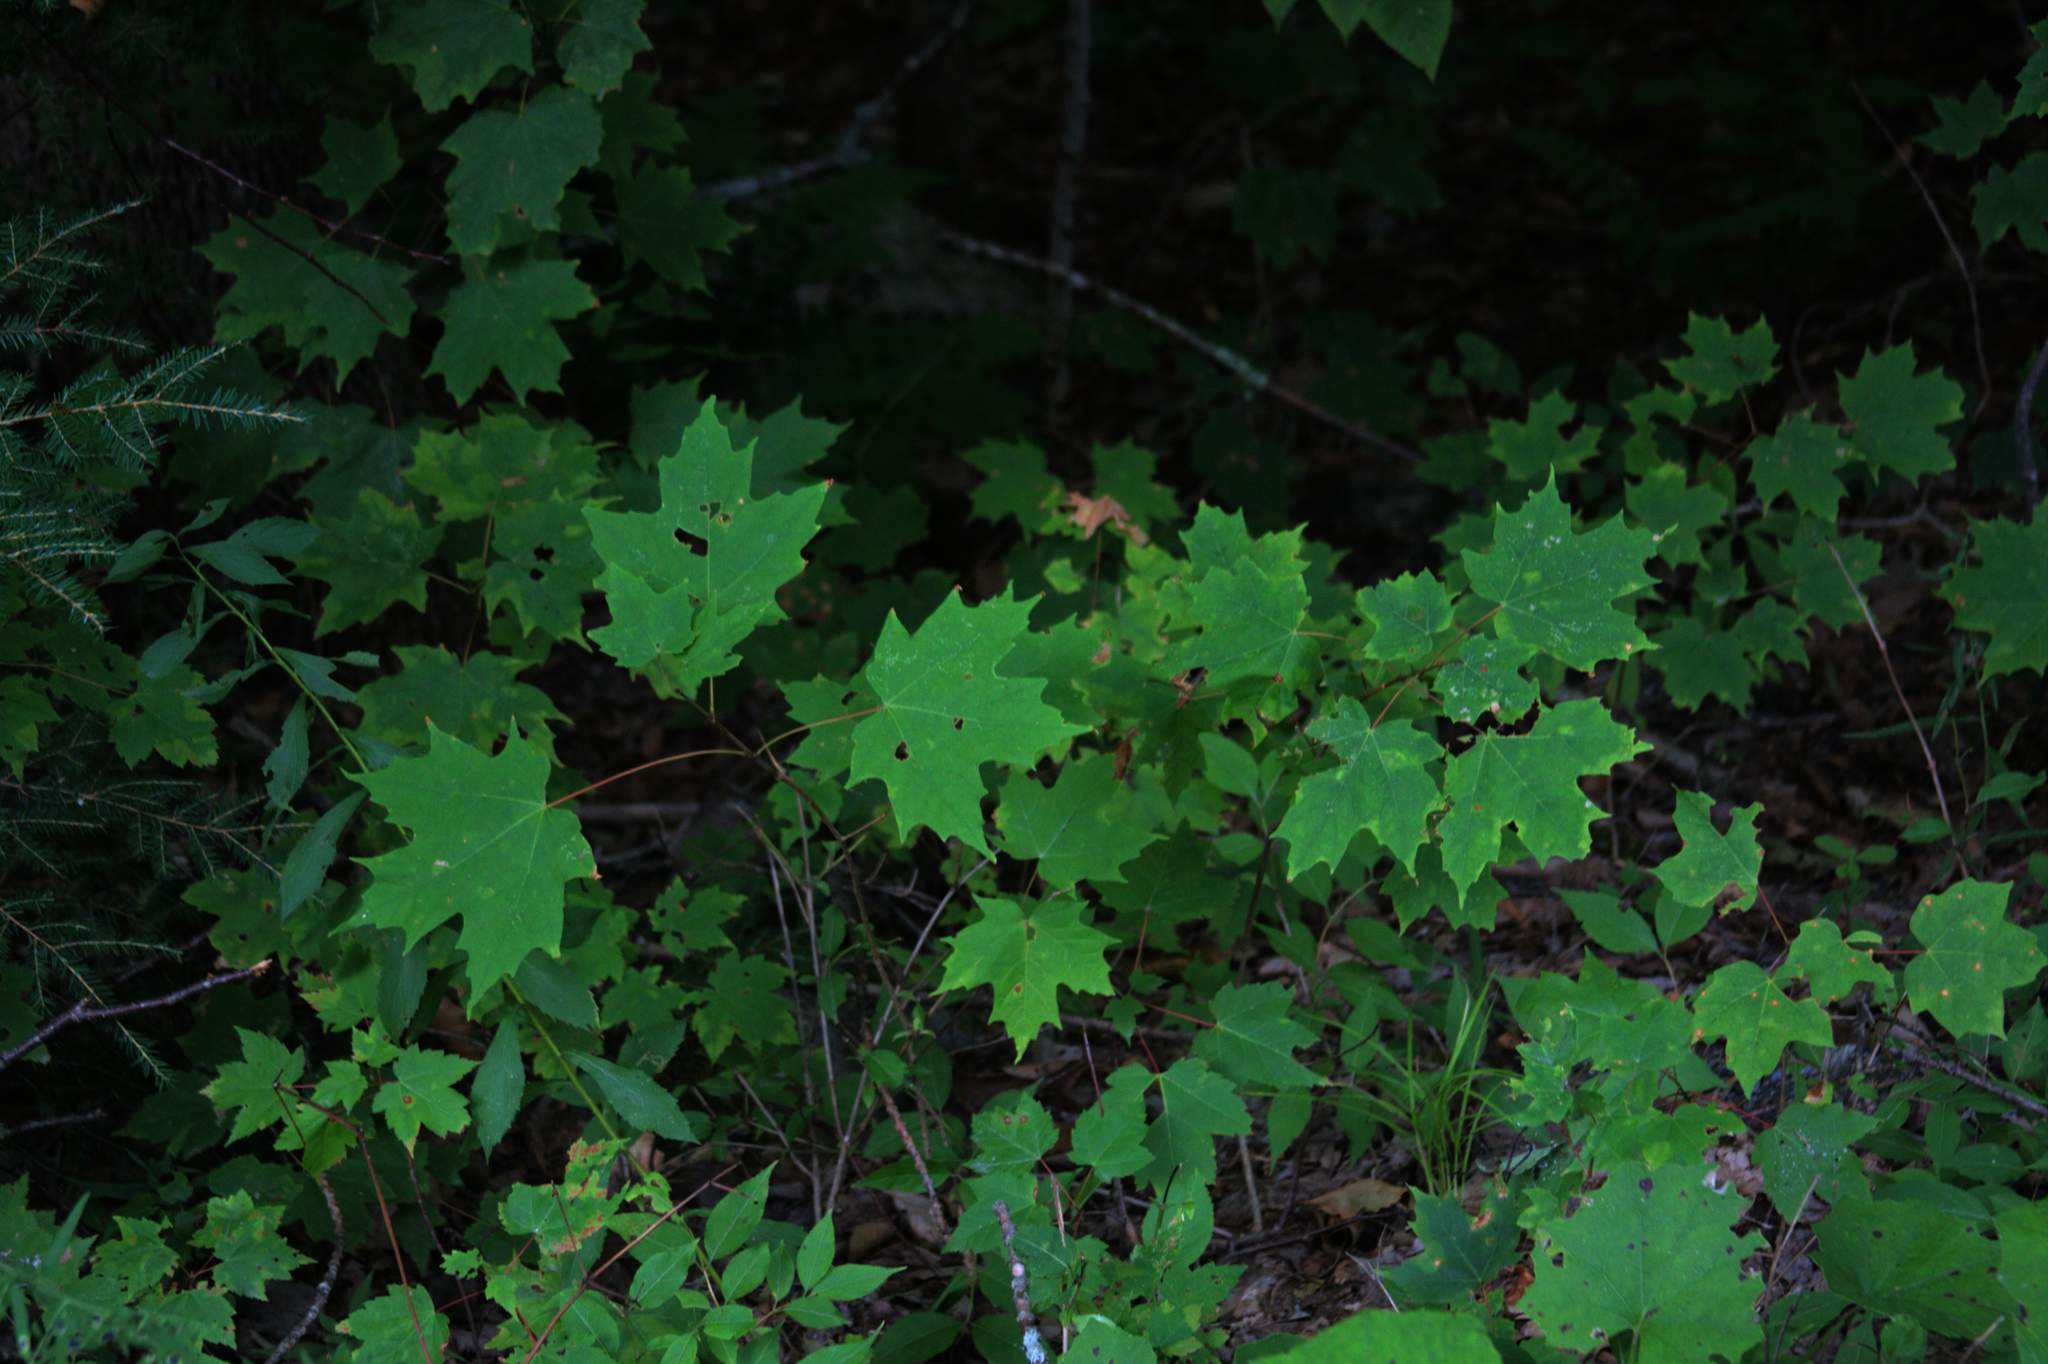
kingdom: Plantae
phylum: Tracheophyta
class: Magnoliopsida
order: Sapindales
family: Sapindaceae
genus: Acer
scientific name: Acer saccharum
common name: Sugar maple
